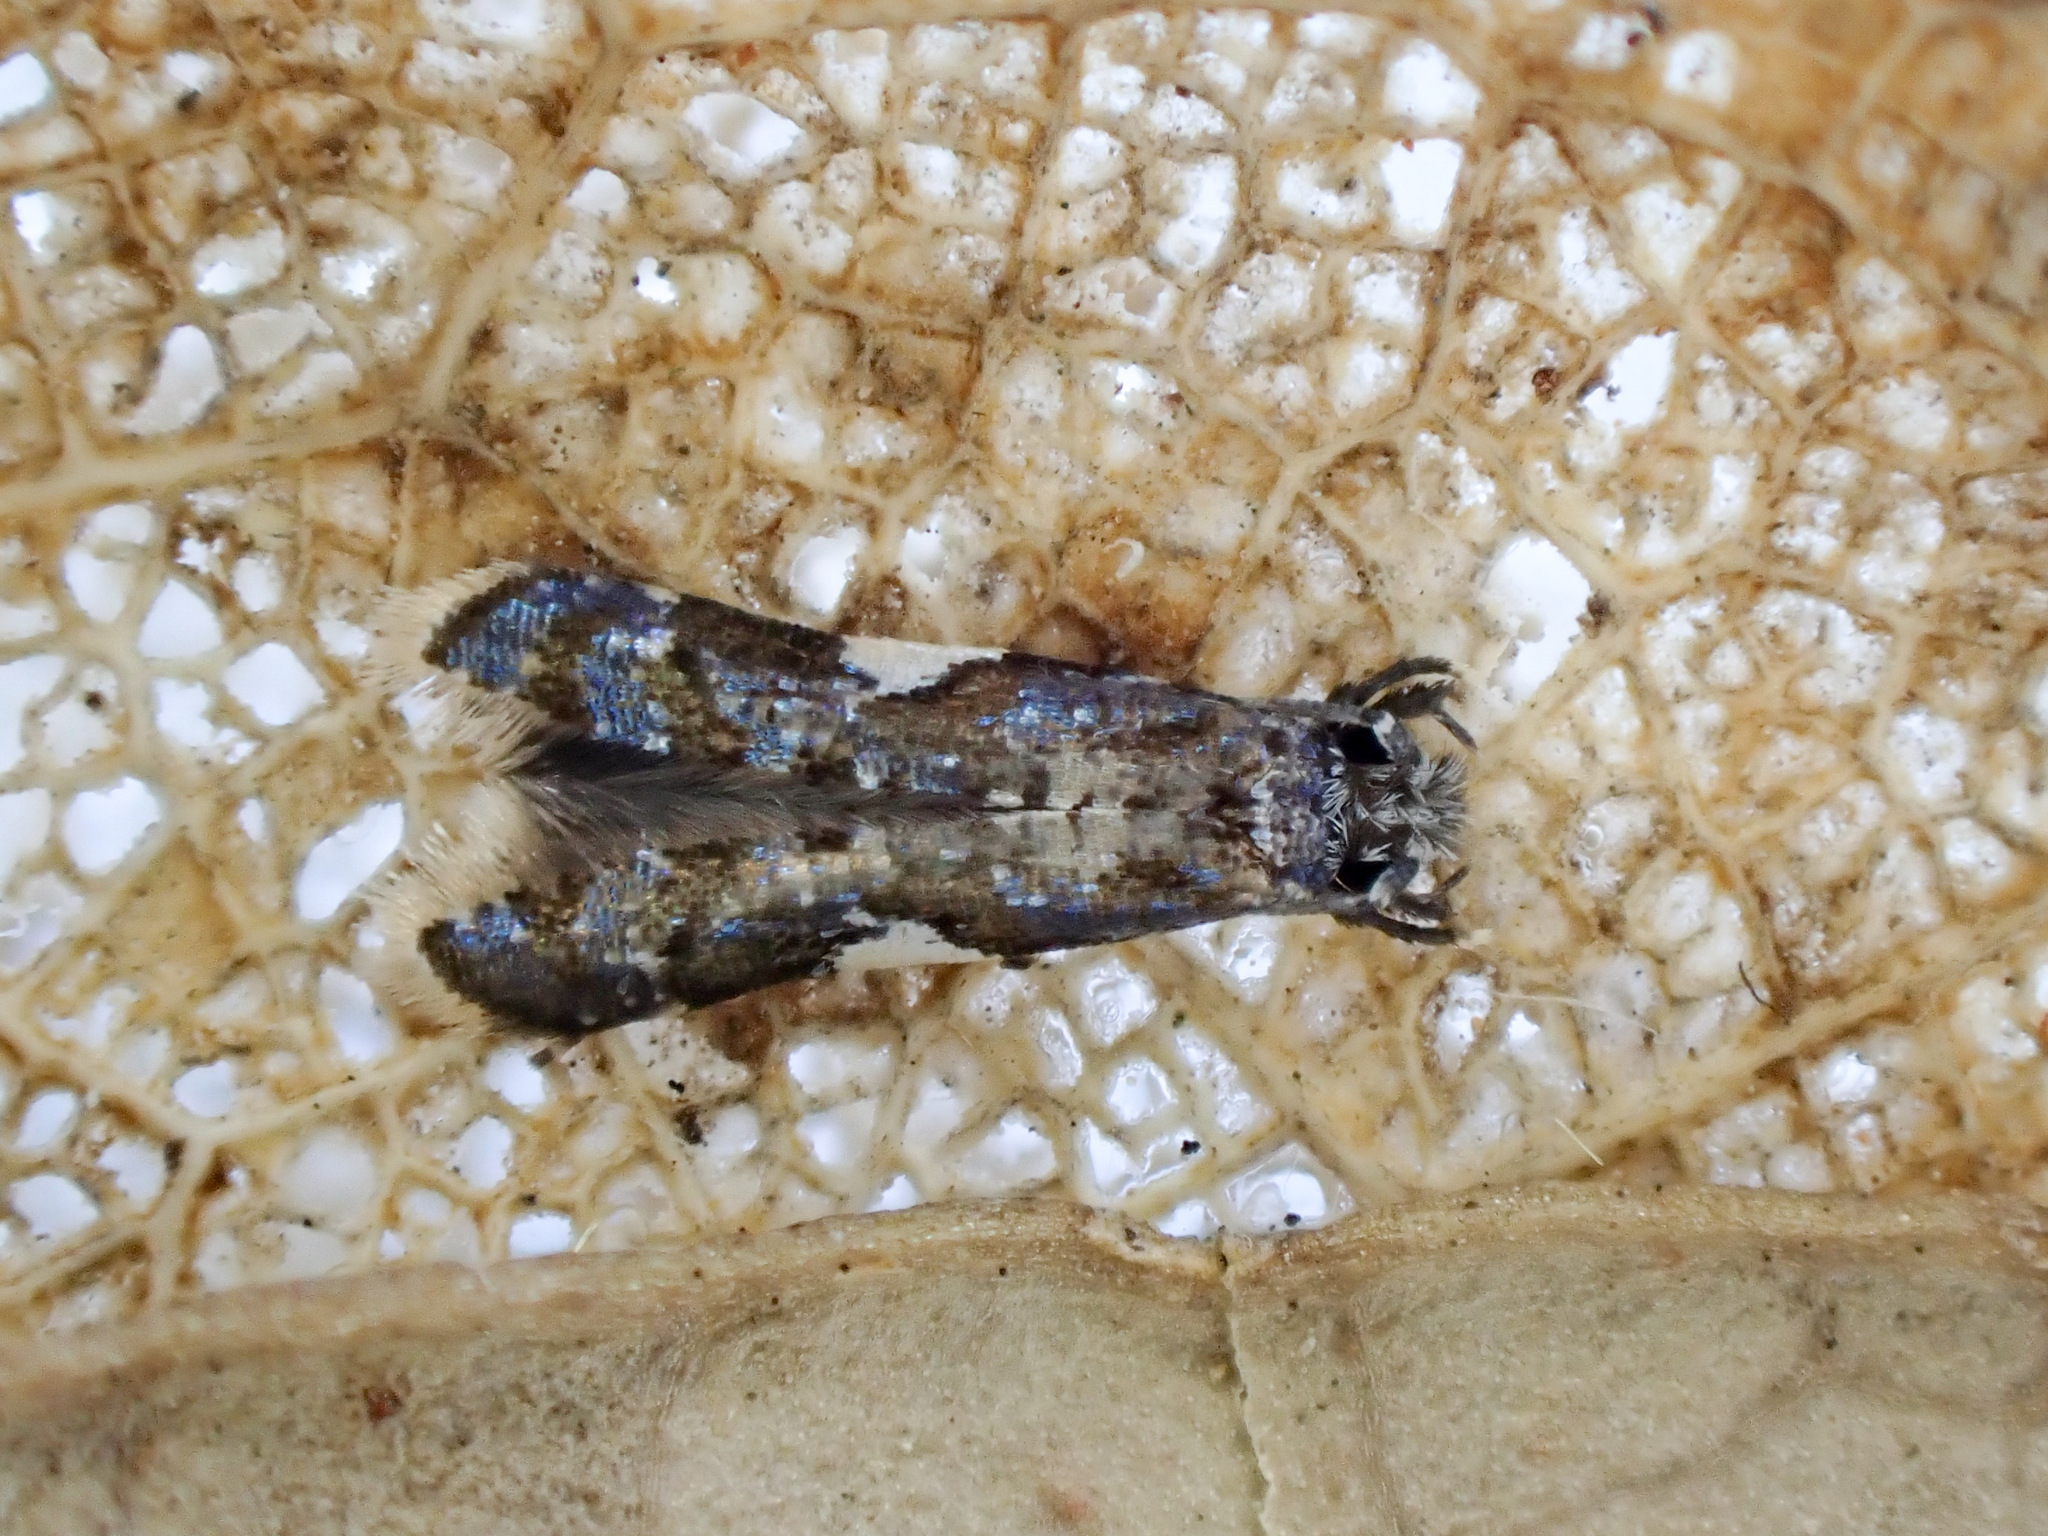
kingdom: Animalia
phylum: Arthropoda
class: Insecta
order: Lepidoptera
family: Tineidae
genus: Habrophila
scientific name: Habrophila compseuta
